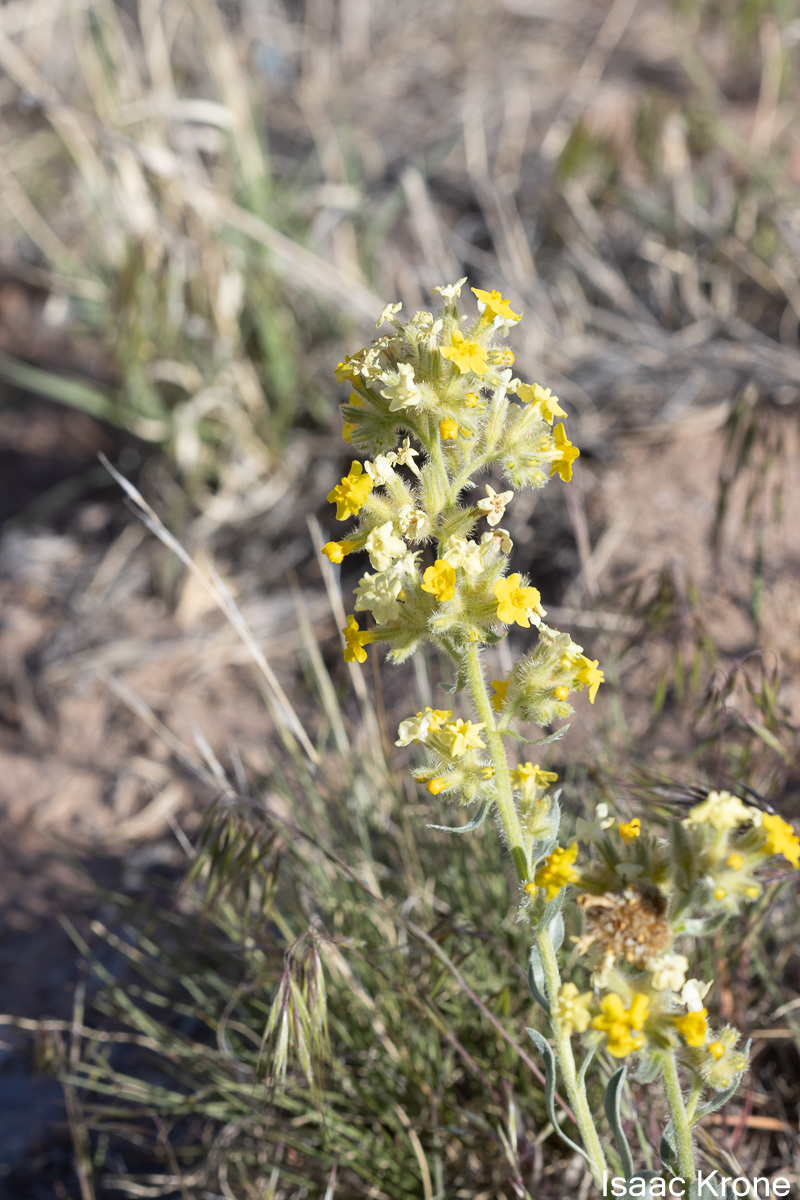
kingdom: Plantae
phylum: Tracheophyta
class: Magnoliopsida
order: Boraginales
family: Boraginaceae
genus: Oreocarya
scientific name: Oreocarya flava
